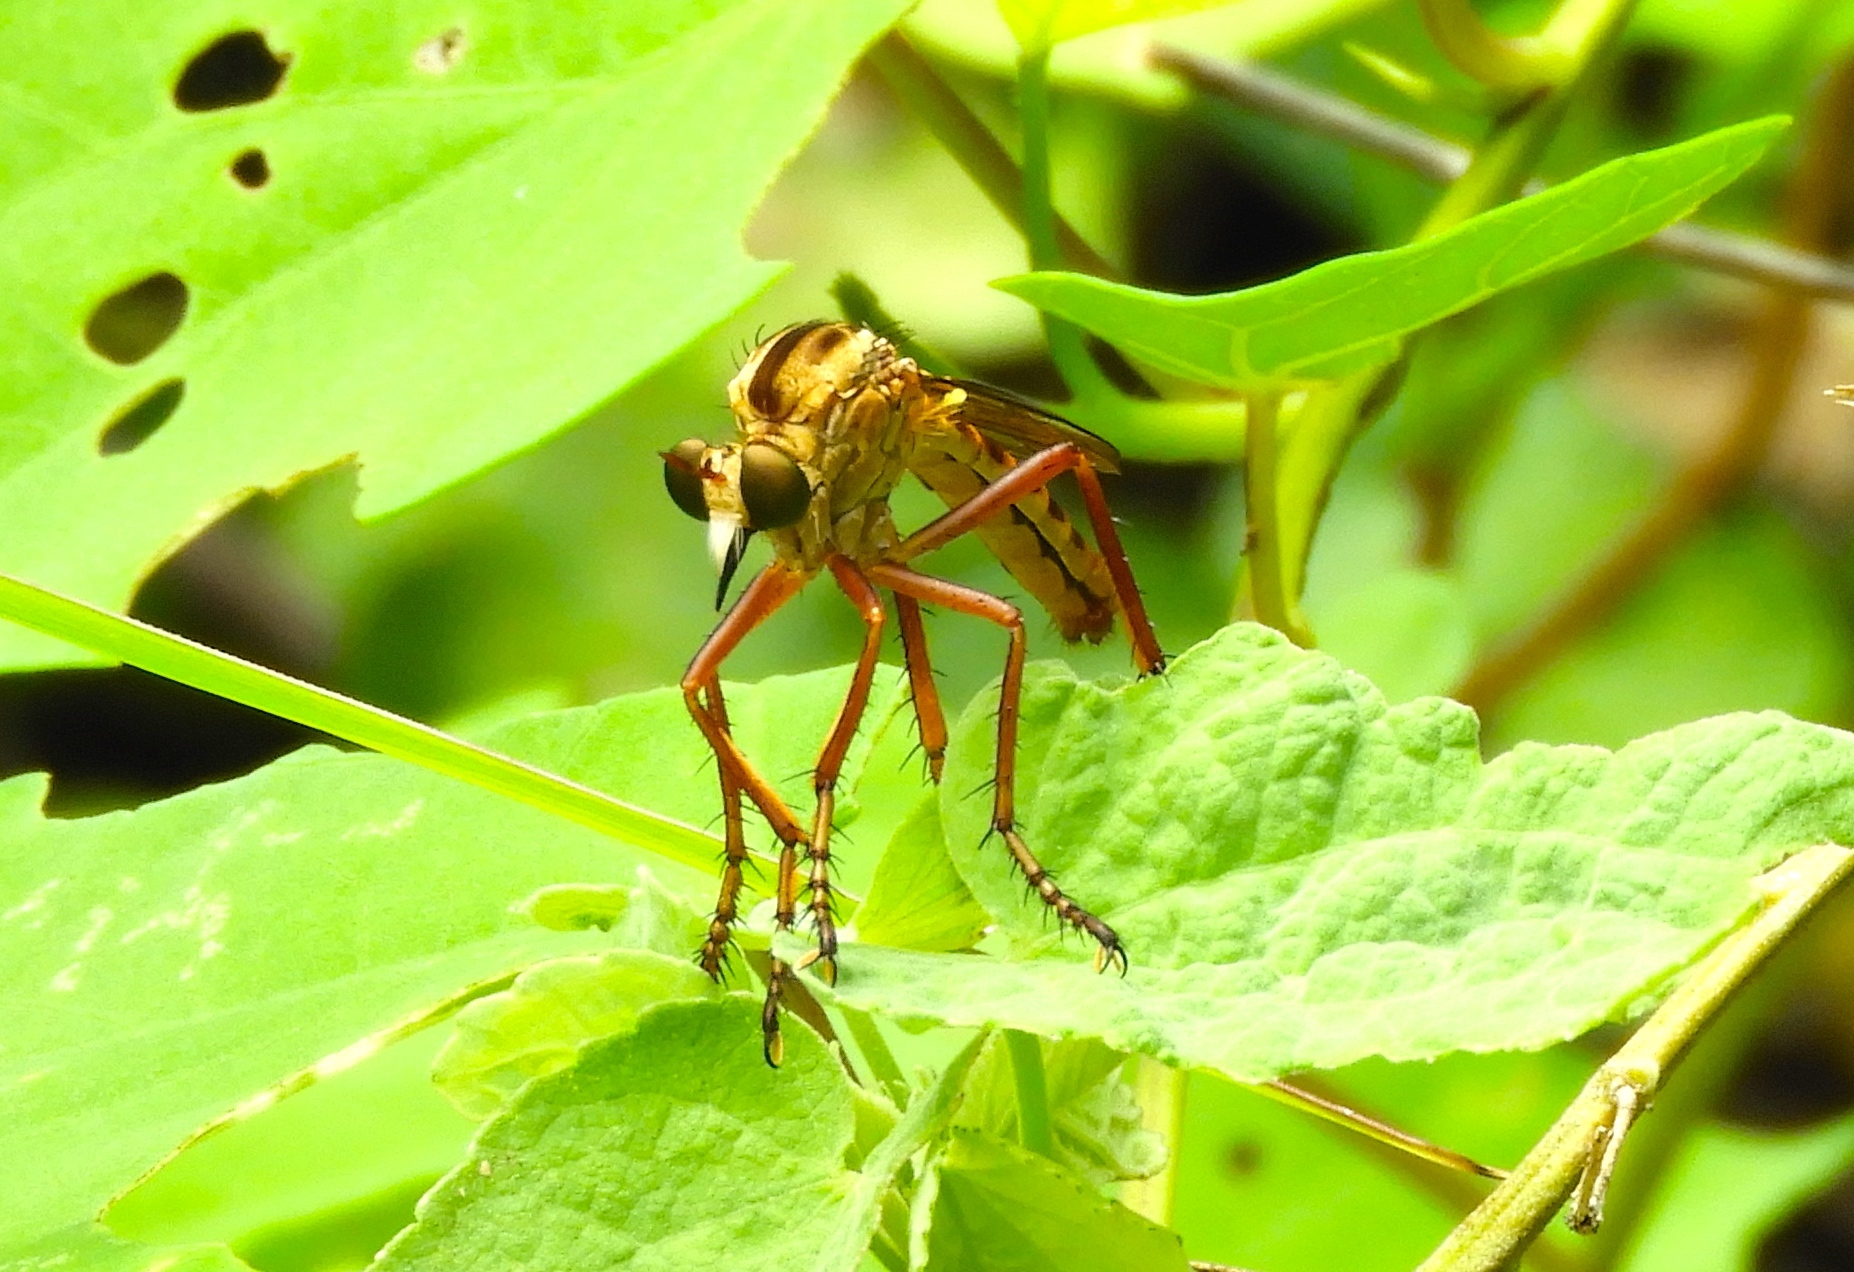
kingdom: Animalia
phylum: Arthropoda
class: Insecta
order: Diptera
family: Asilidae
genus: Diogmites
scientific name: Diogmites
